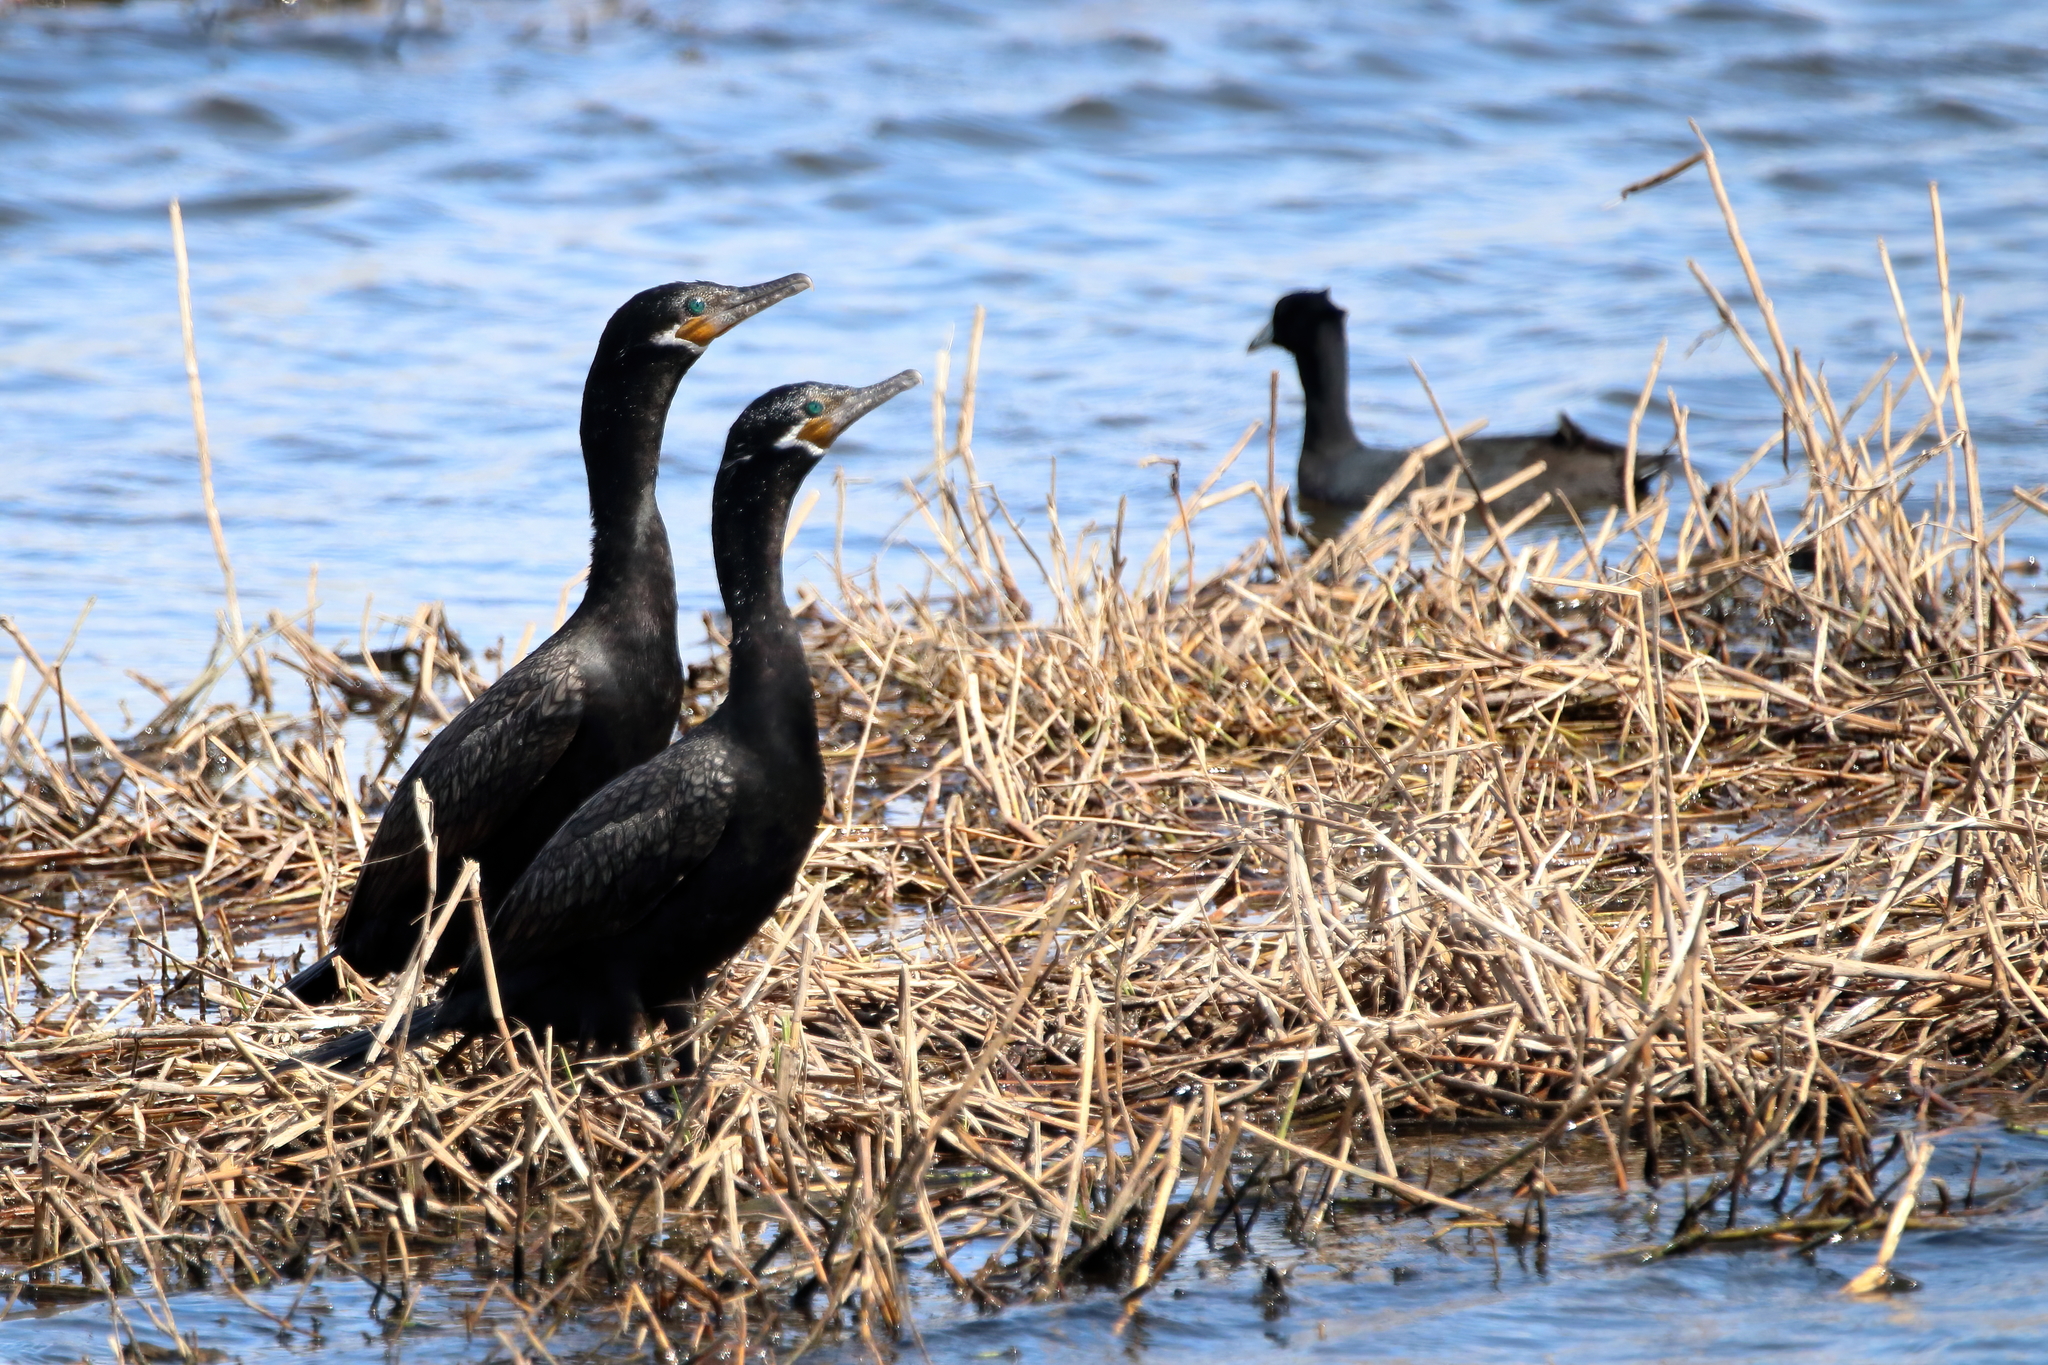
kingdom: Animalia
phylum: Chordata
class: Aves
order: Suliformes
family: Phalacrocoracidae
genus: Phalacrocorax
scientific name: Phalacrocorax brasilianus
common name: Neotropic cormorant
